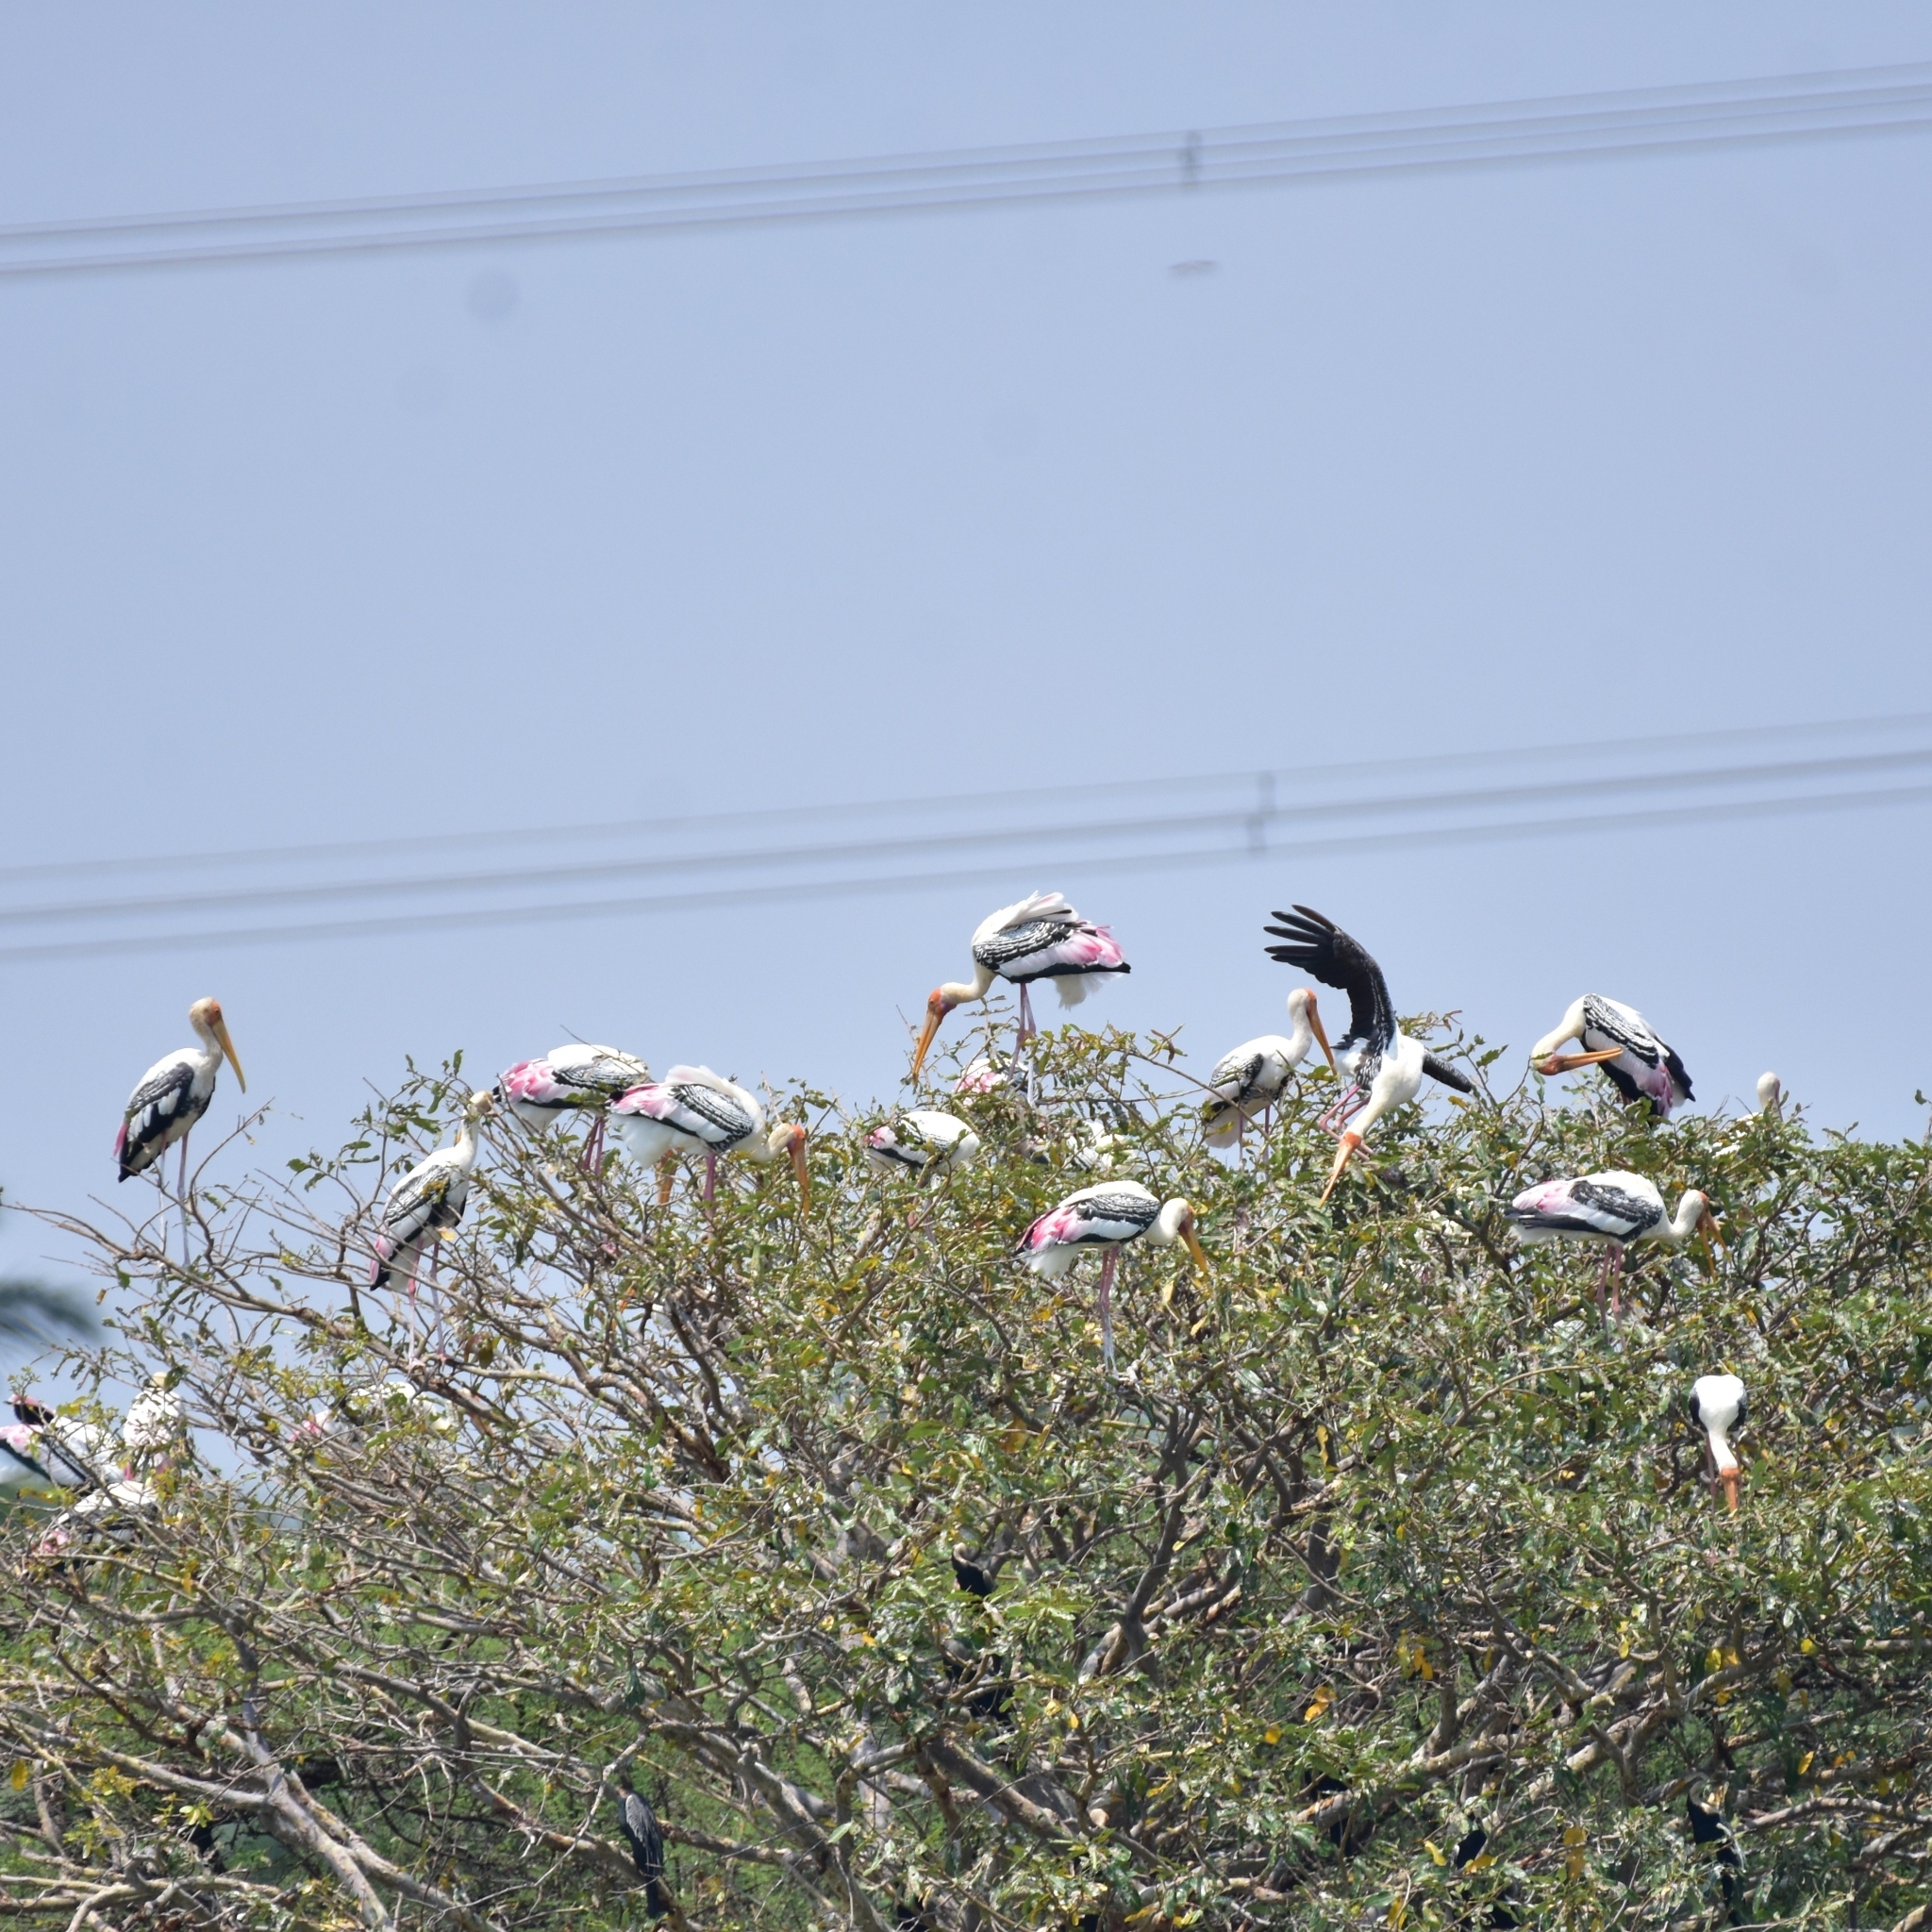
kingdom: Animalia
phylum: Chordata
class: Aves
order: Ciconiiformes
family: Ciconiidae
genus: Mycteria
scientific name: Mycteria leucocephala
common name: Painted stork
